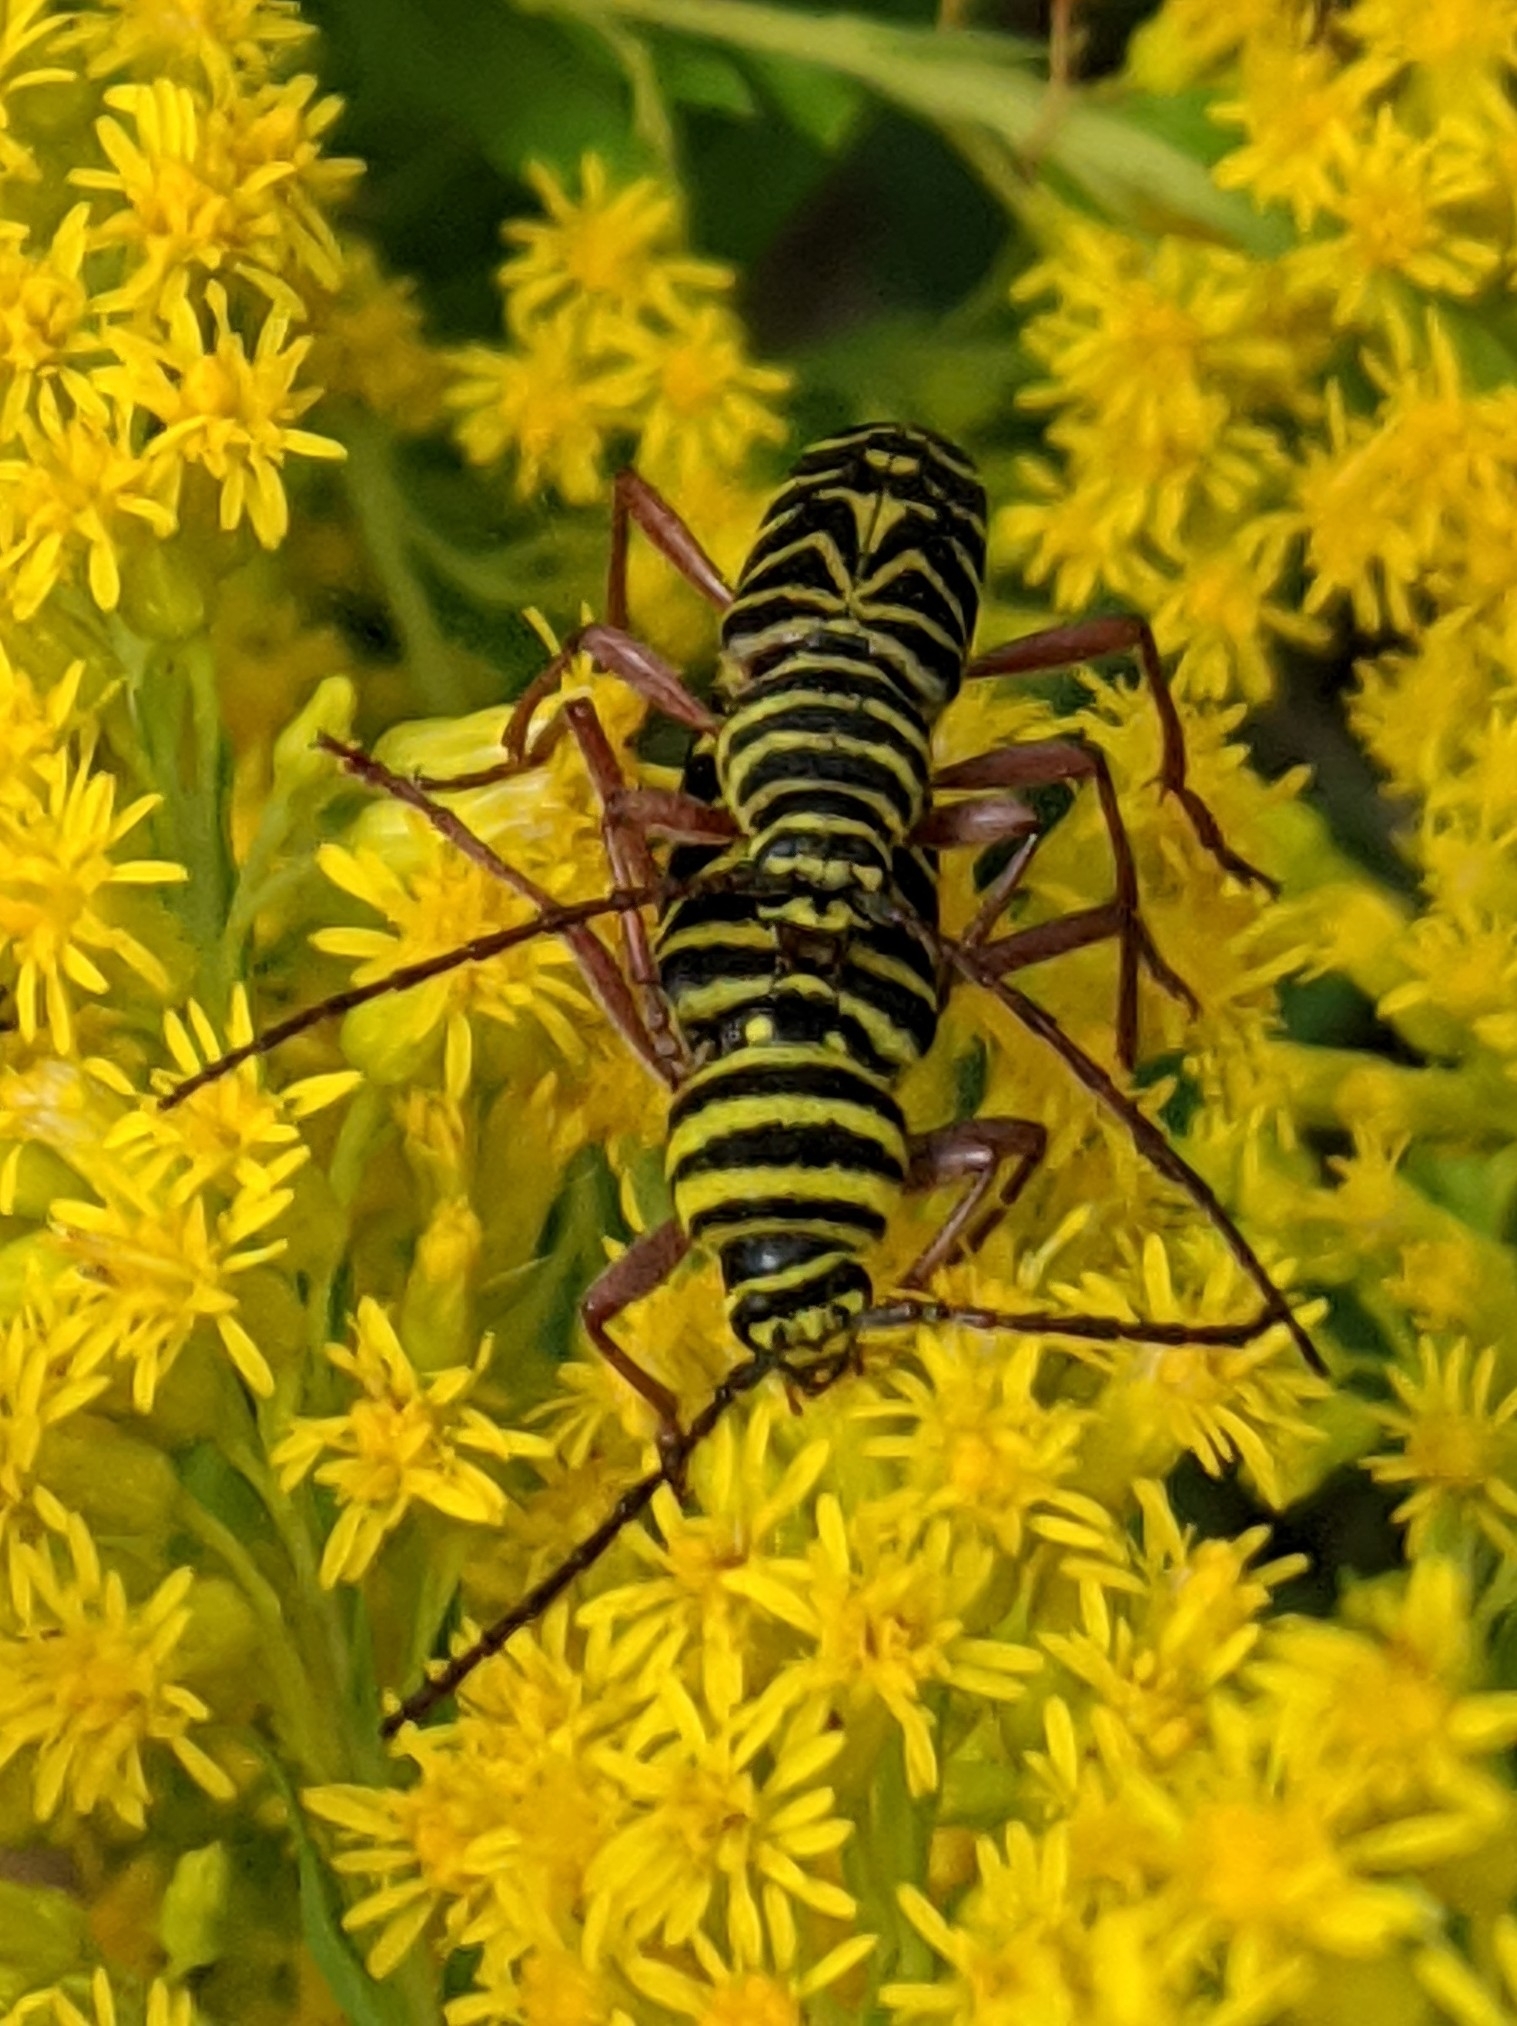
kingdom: Animalia
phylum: Arthropoda
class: Insecta
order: Coleoptera
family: Cerambycidae
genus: Megacyllene
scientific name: Megacyllene robiniae
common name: Locust borer
